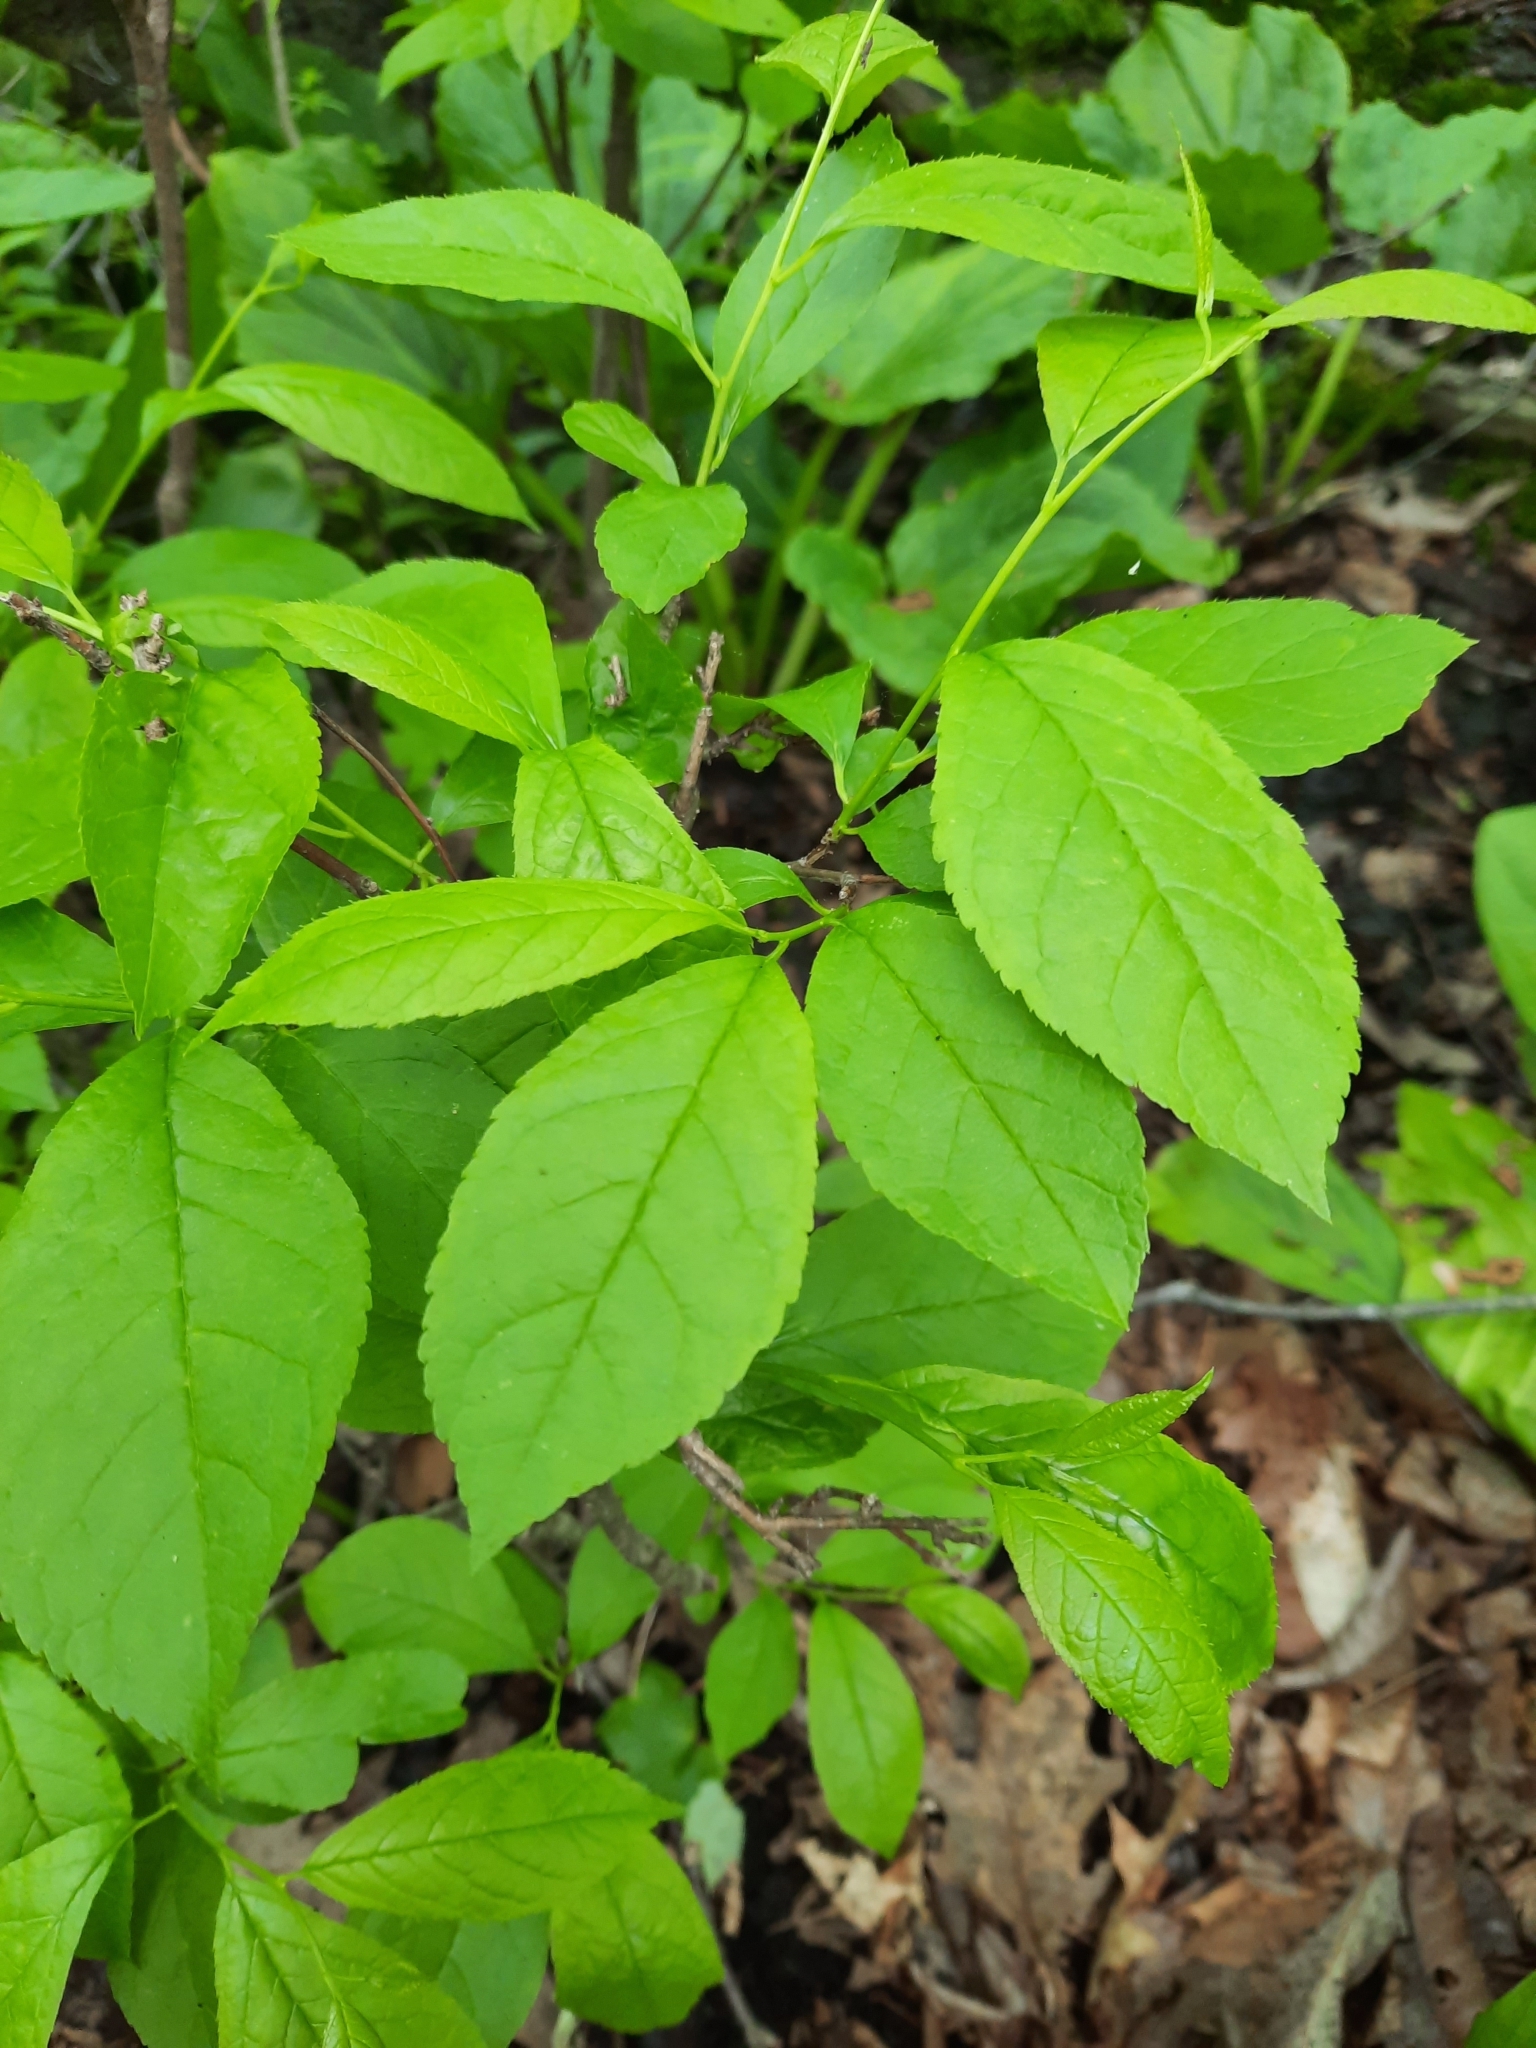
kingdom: Plantae
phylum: Tracheophyta
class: Magnoliopsida
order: Aquifoliales
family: Aquifoliaceae
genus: Ilex
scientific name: Ilex verticillata
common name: Virginia winterberry
